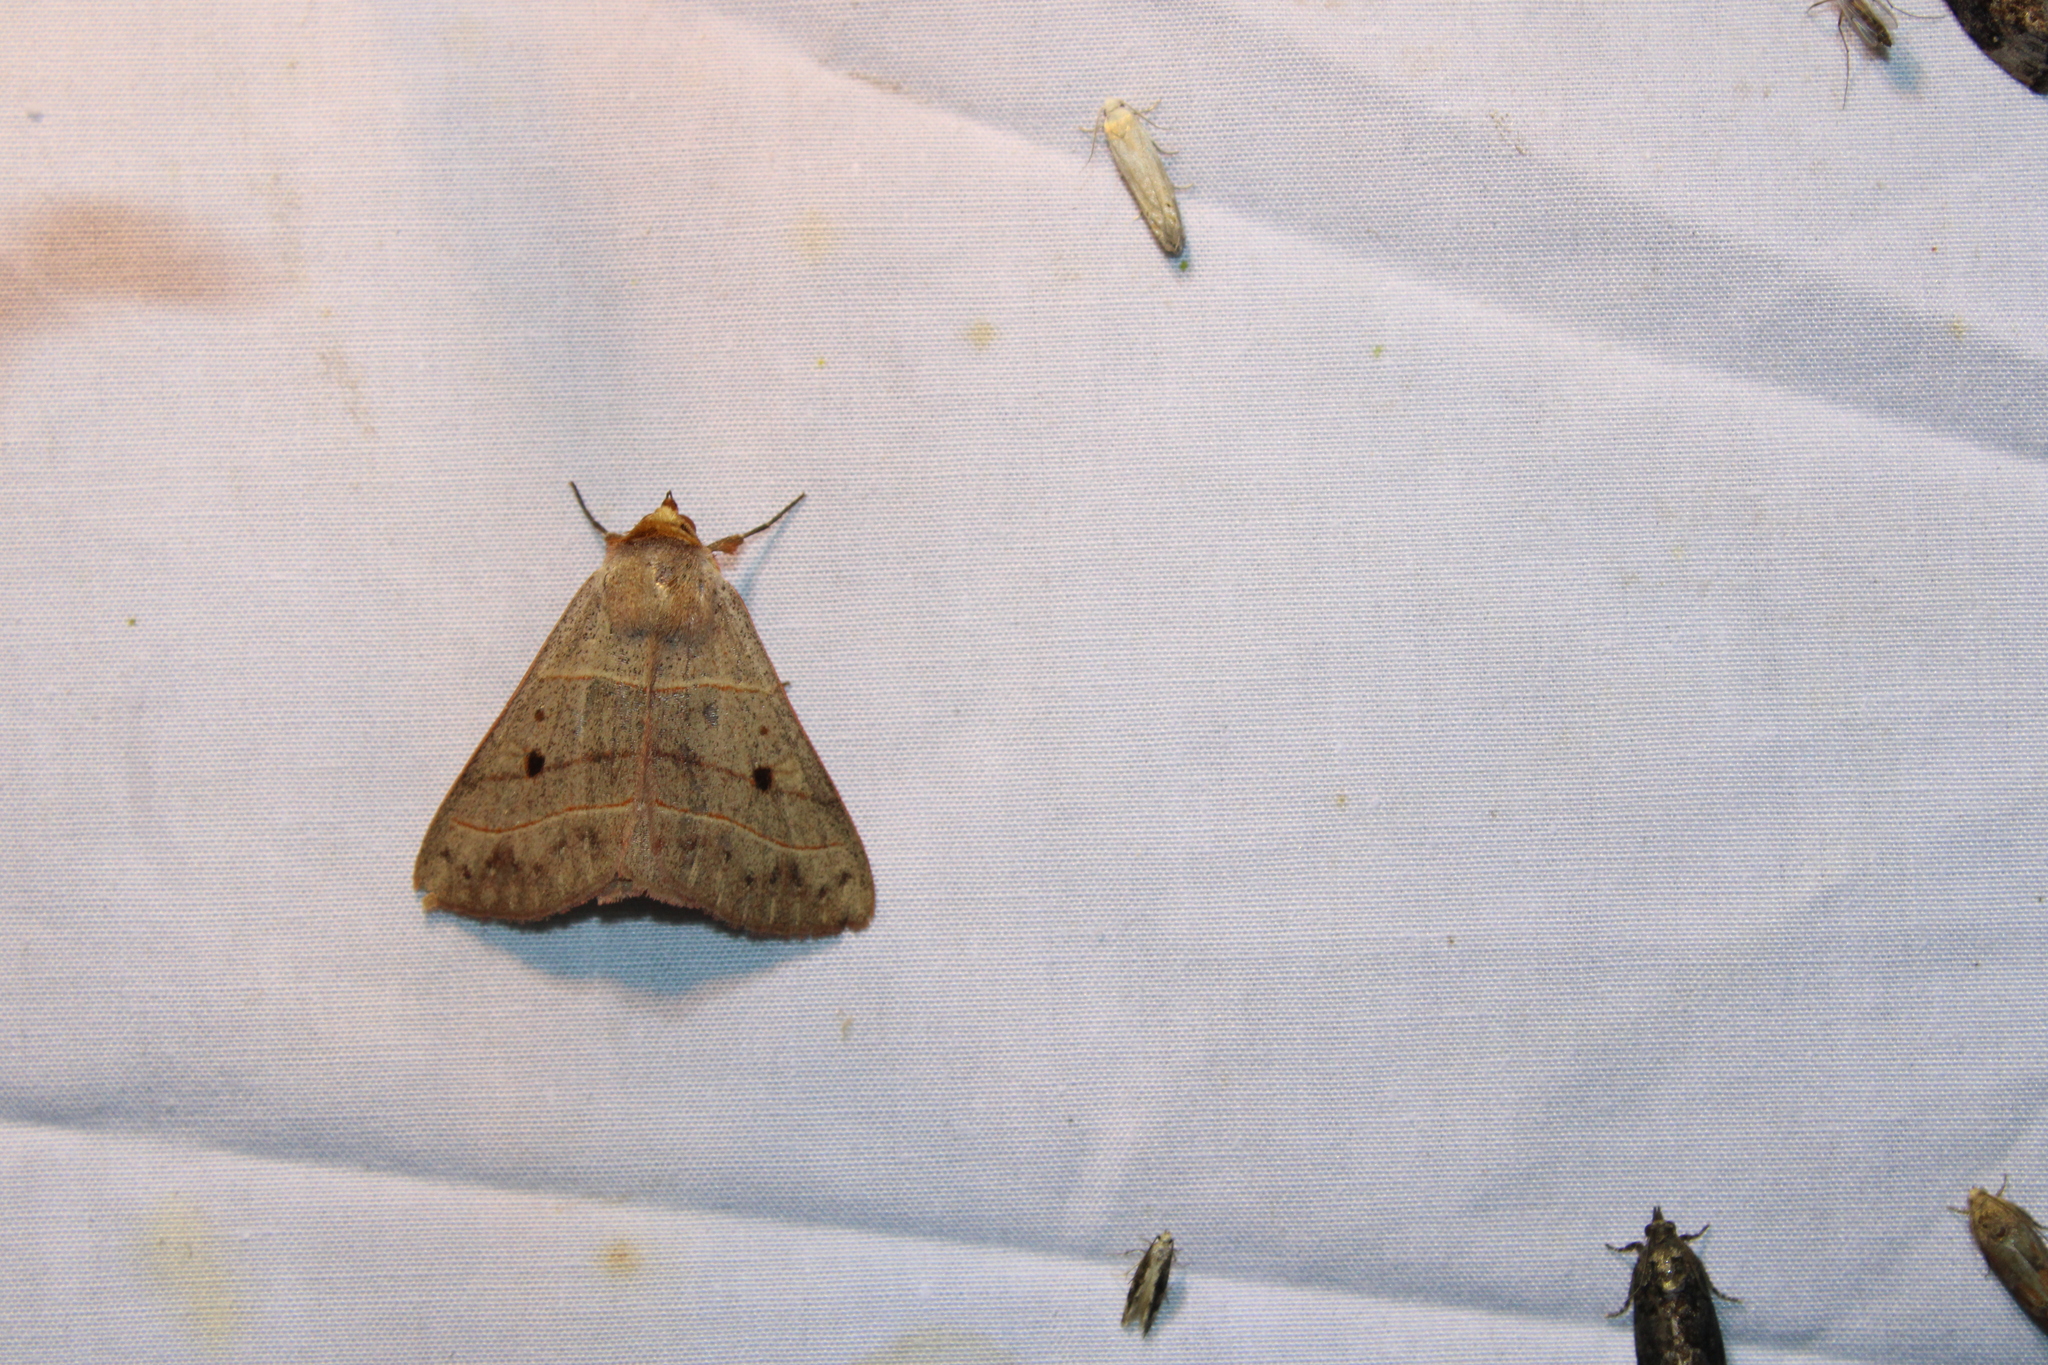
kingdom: Animalia
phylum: Arthropoda
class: Insecta
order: Lepidoptera
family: Erebidae
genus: Panopoda
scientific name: Panopoda rufimargo
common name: Red-lined panopoda moth
